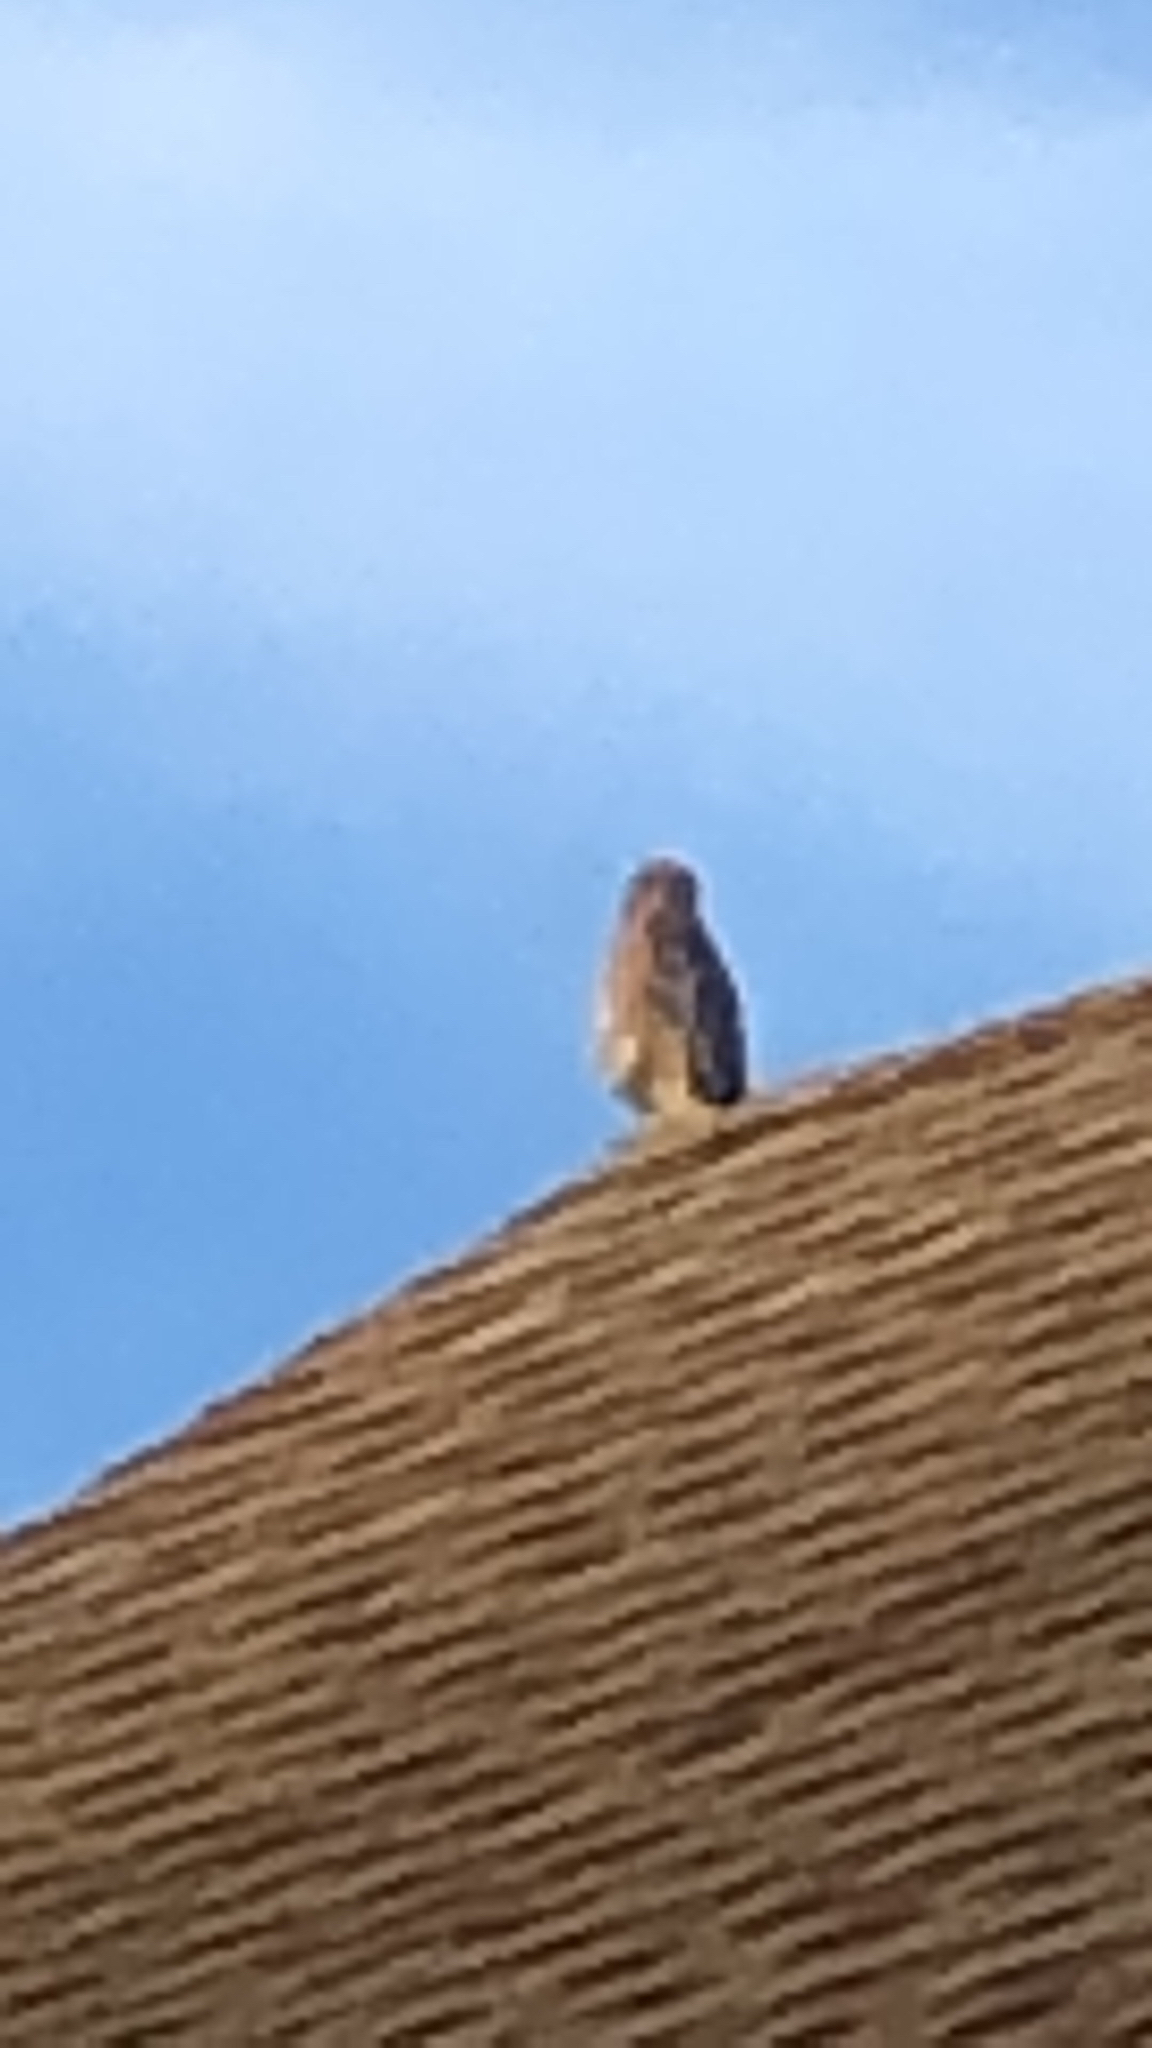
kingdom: Animalia
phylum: Chordata
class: Aves
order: Accipitriformes
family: Accipitridae
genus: Buteo
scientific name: Buteo lineatus
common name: Red-shouldered hawk
